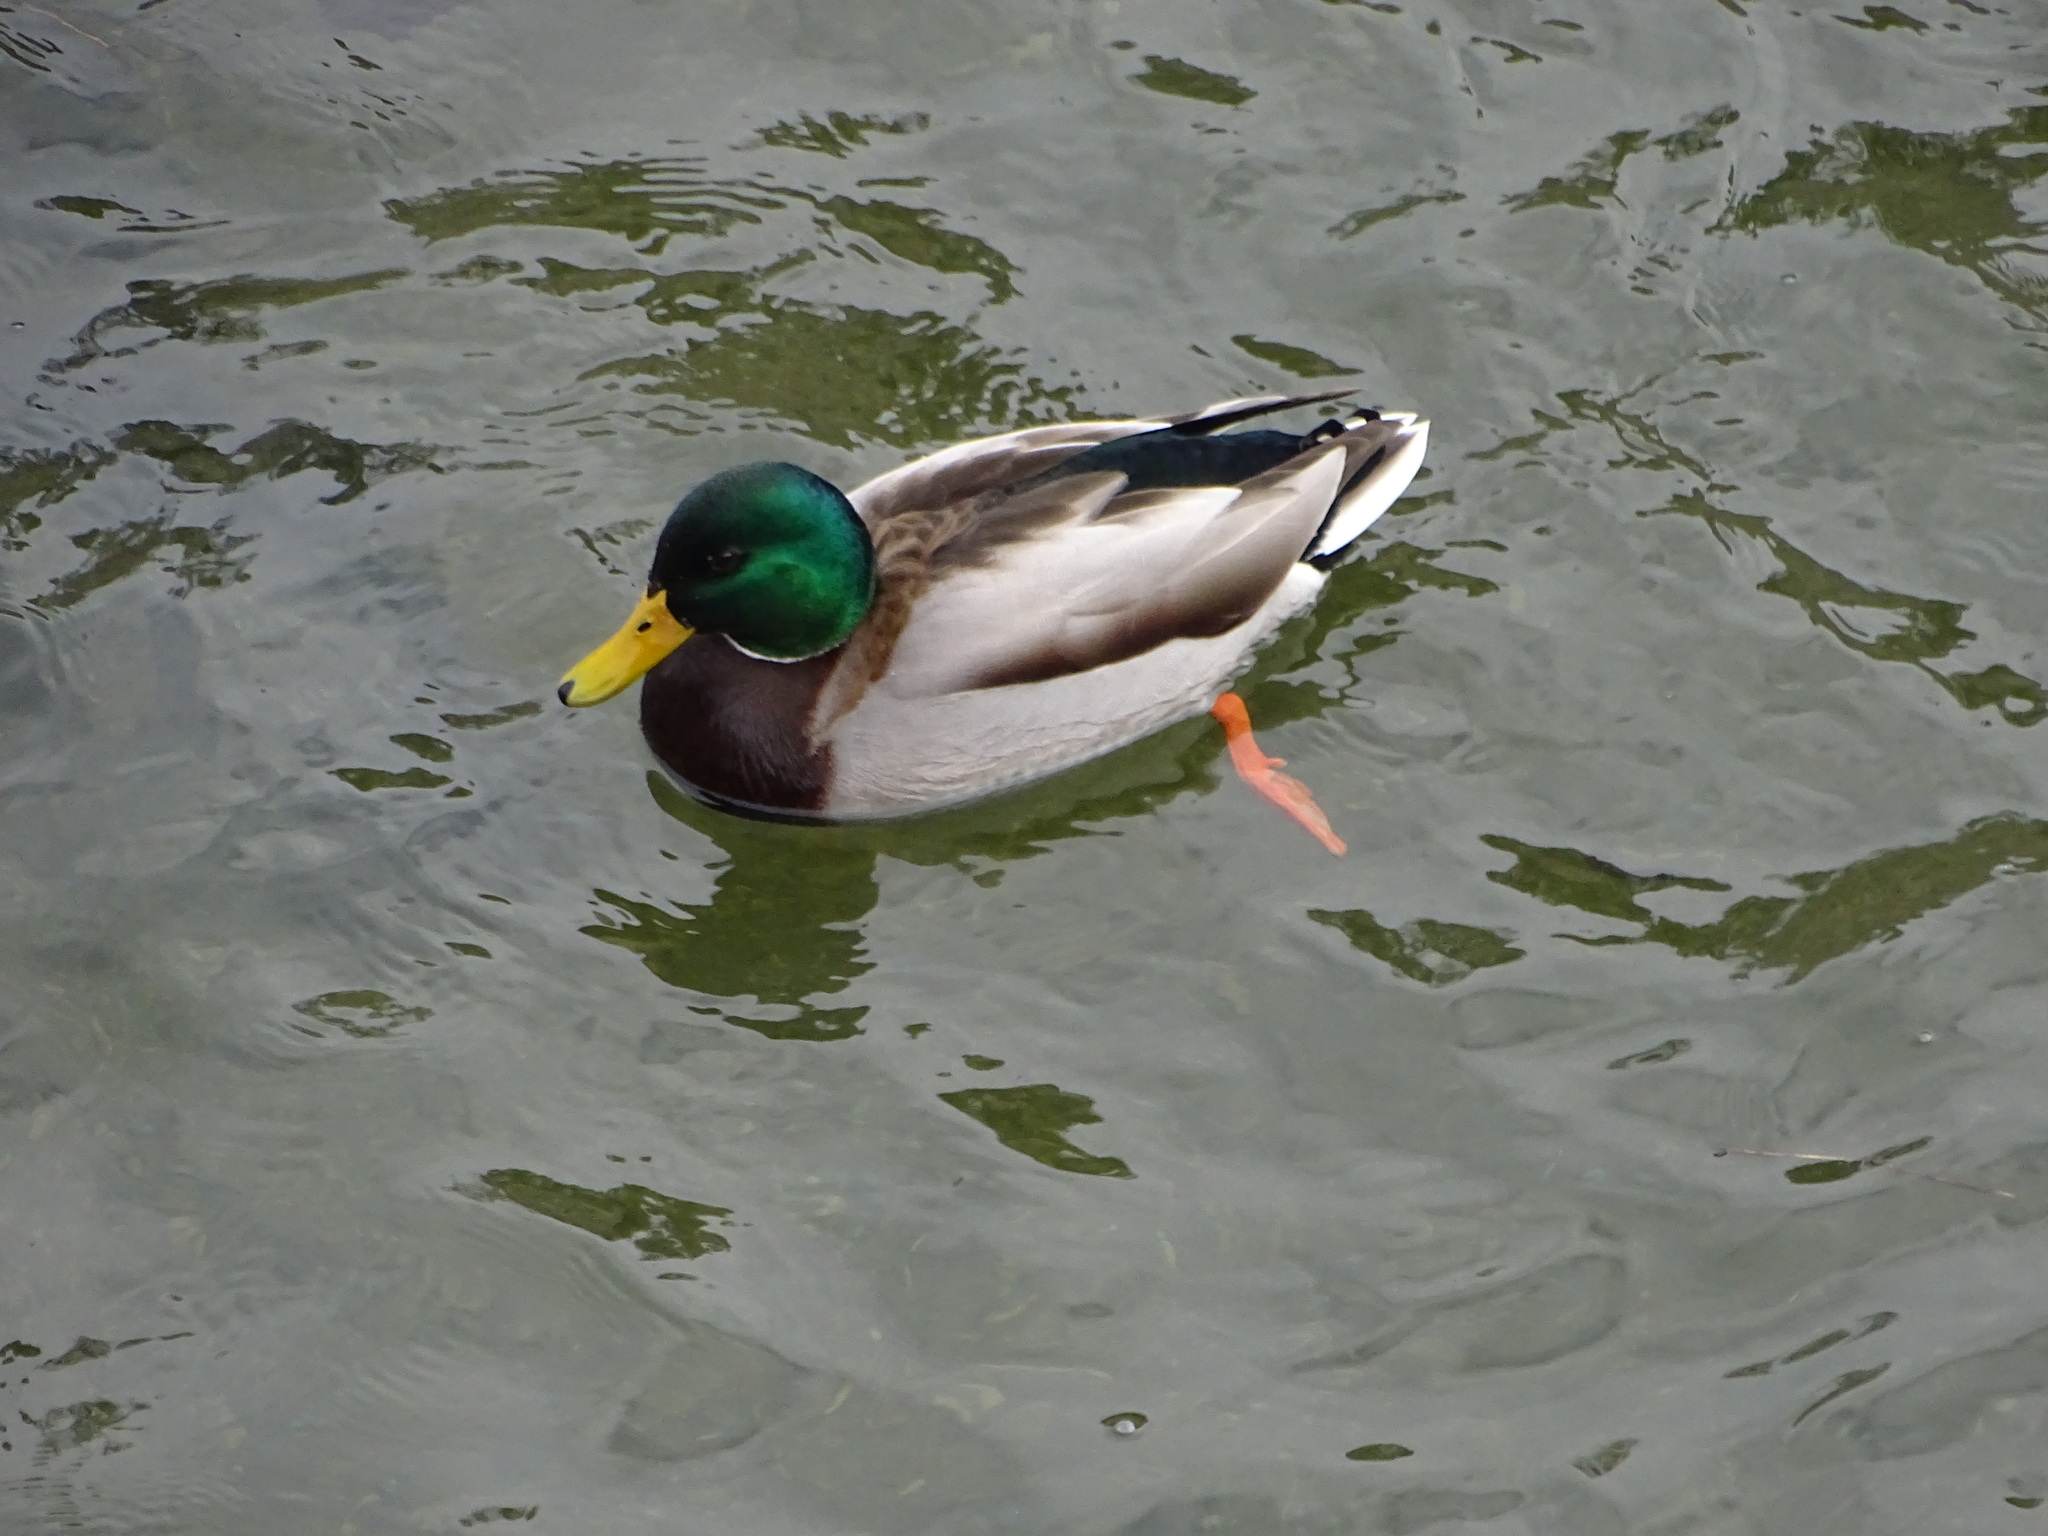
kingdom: Animalia
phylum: Chordata
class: Aves
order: Anseriformes
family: Anatidae
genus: Anas
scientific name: Anas platyrhynchos
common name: Mallard
